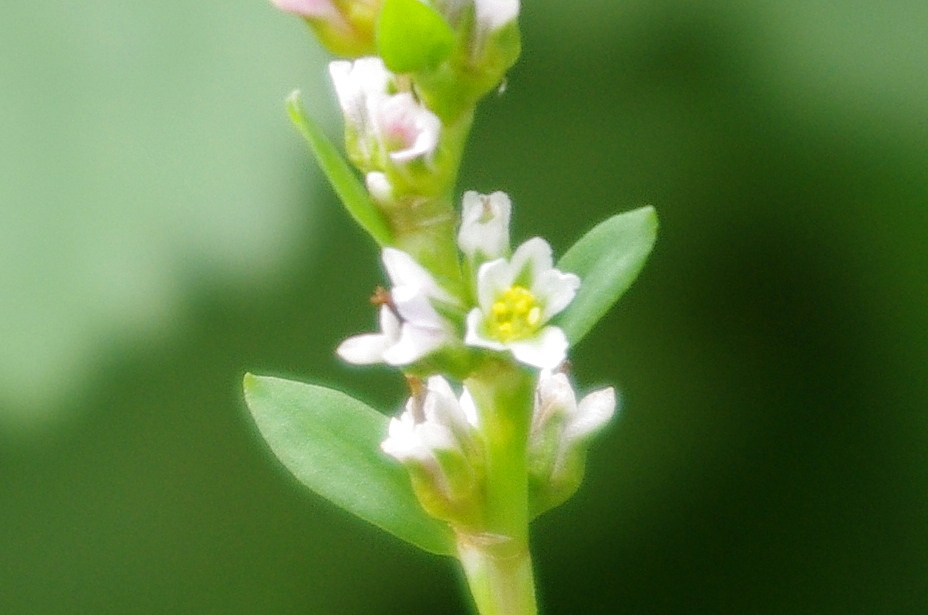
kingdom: Plantae
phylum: Tracheophyta
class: Magnoliopsida
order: Caryophyllales
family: Polygonaceae
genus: Polygonum
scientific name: Polygonum
